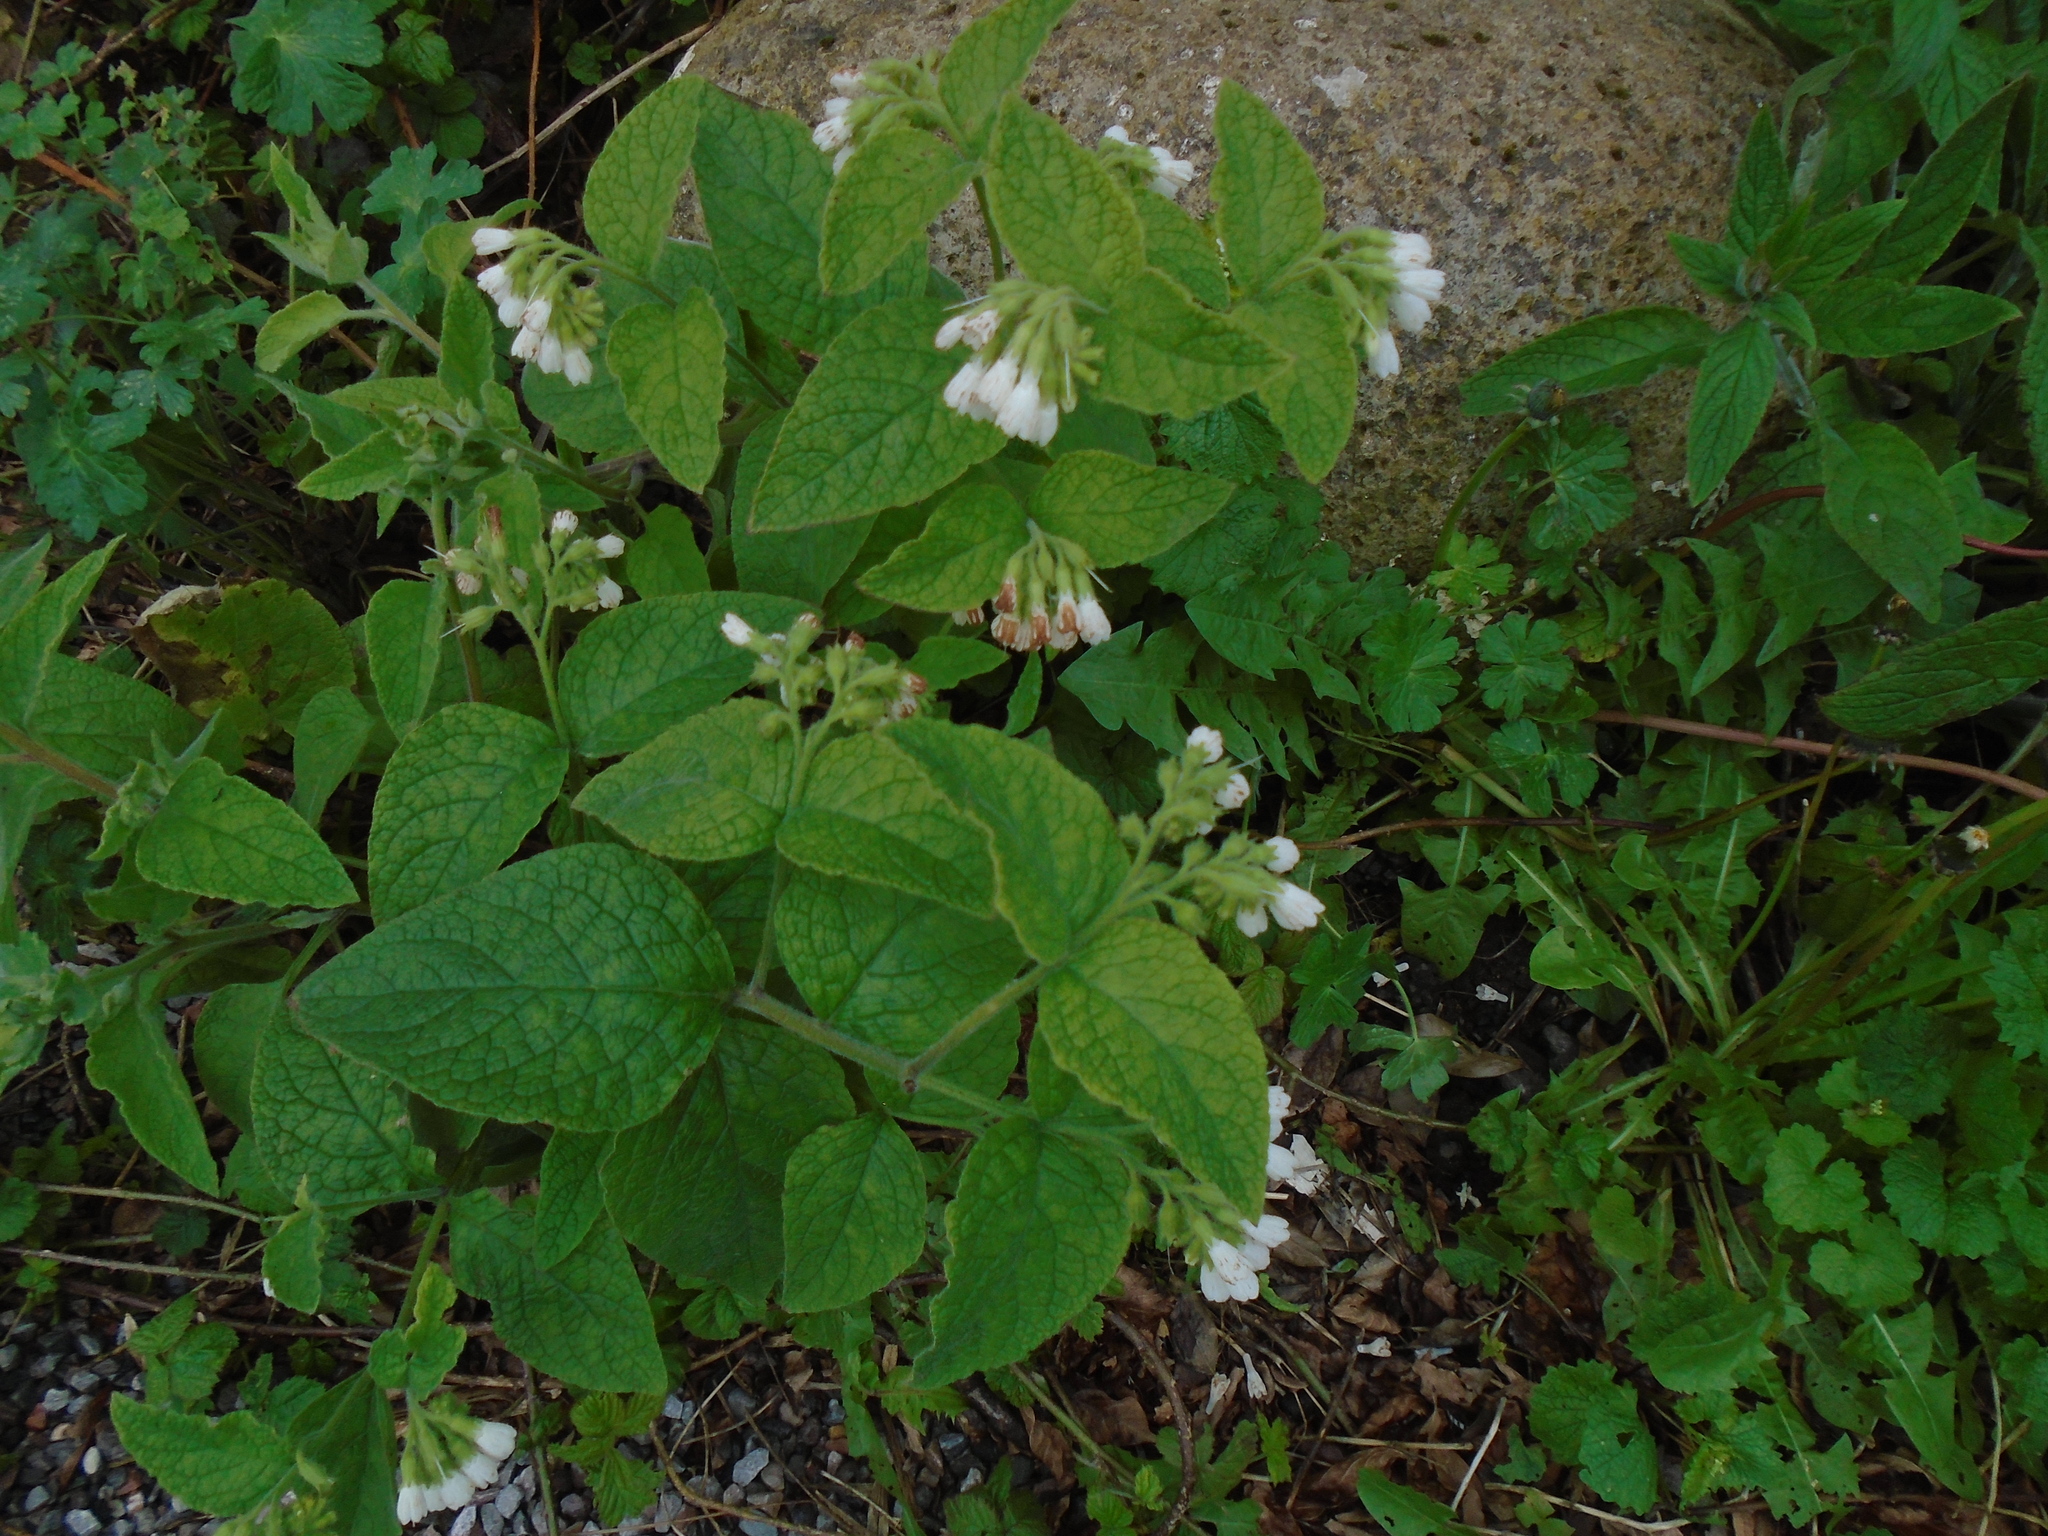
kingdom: Plantae
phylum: Tracheophyta
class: Magnoliopsida
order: Boraginales
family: Boraginaceae
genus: Symphytum
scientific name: Symphytum orientale
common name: White comfrey
